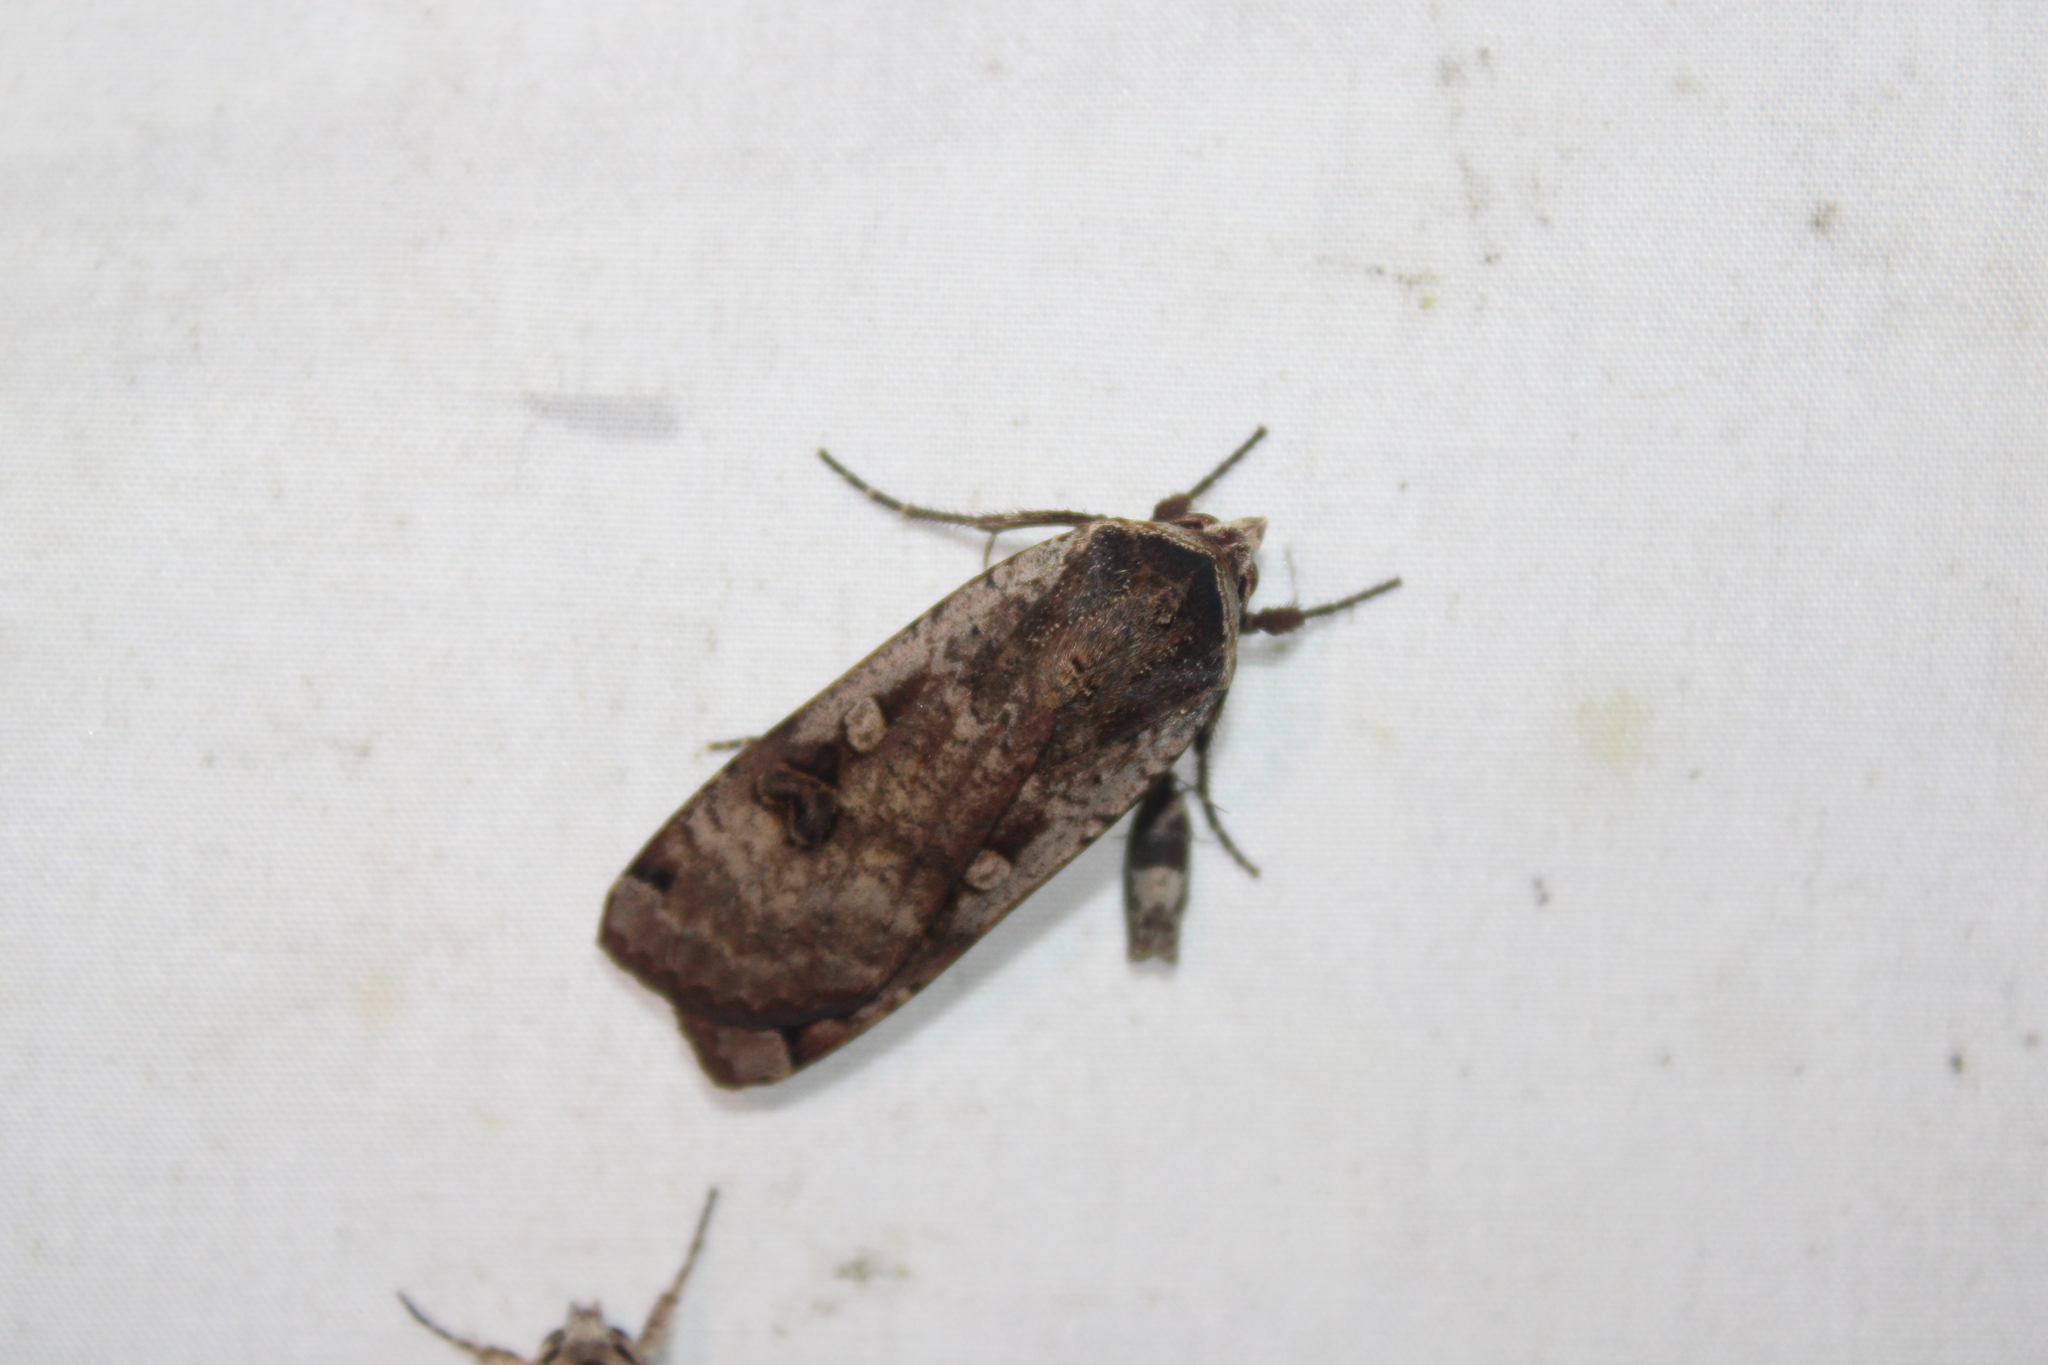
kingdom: Animalia
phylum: Arthropoda
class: Insecta
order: Lepidoptera
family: Noctuidae
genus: Noctua
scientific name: Noctua pronuba
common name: Large yellow underwing
